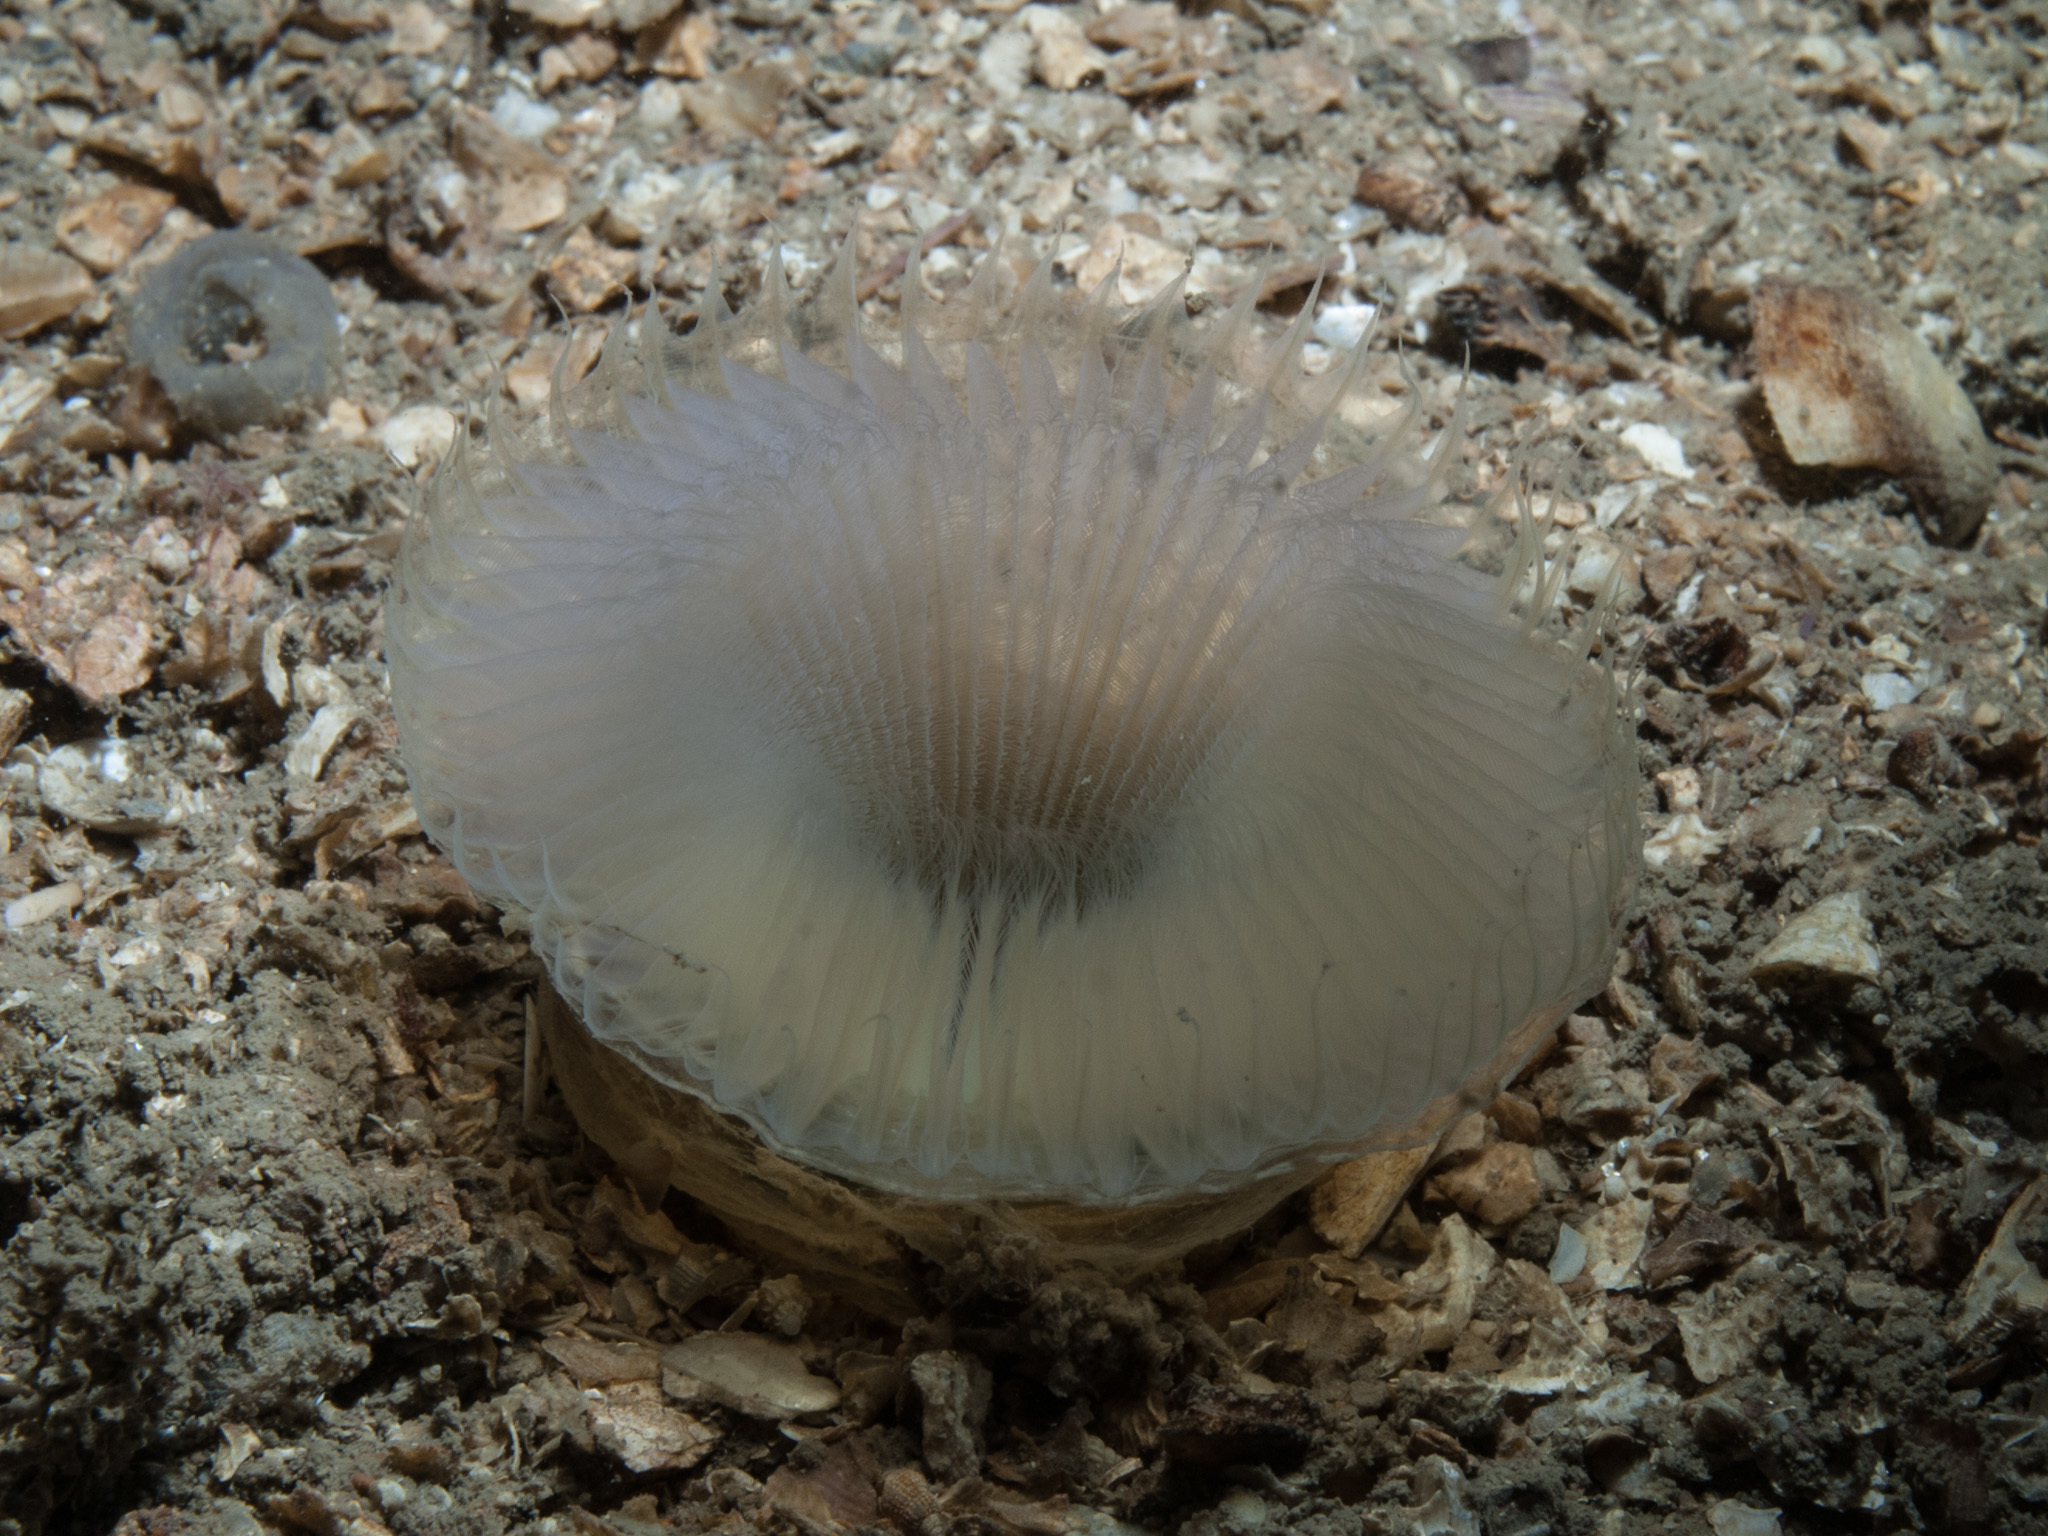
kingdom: Animalia
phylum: Annelida
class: Polychaeta
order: Sabellida
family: Sabellidae
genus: Myxicola
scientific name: Myxicola infundibulum
